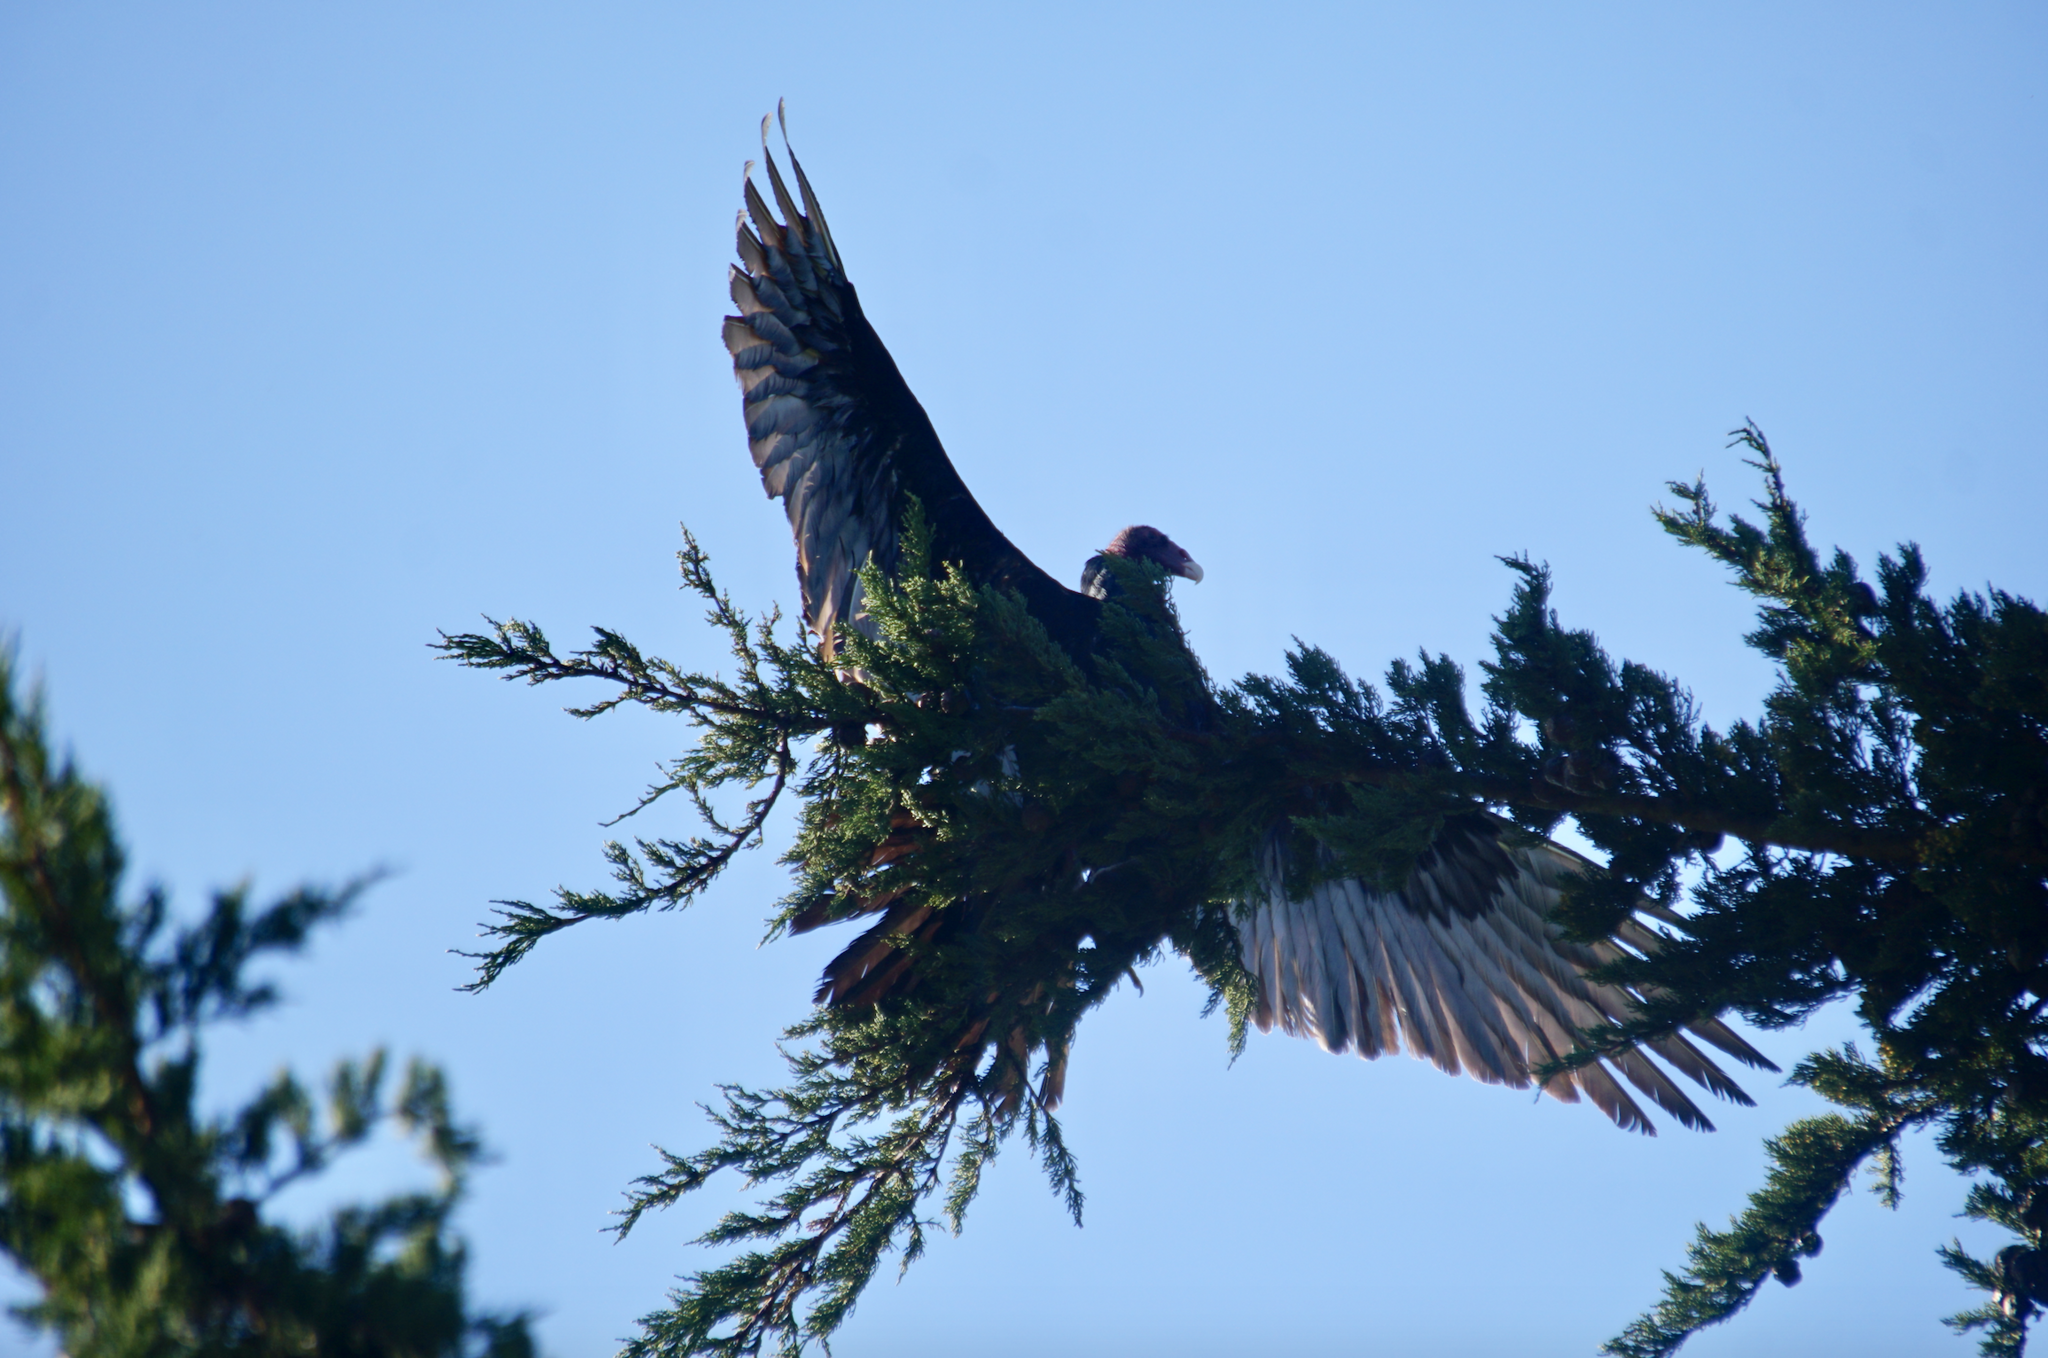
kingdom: Animalia
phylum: Chordata
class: Aves
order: Accipitriformes
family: Cathartidae
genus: Cathartes
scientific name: Cathartes aura
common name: Turkey vulture
